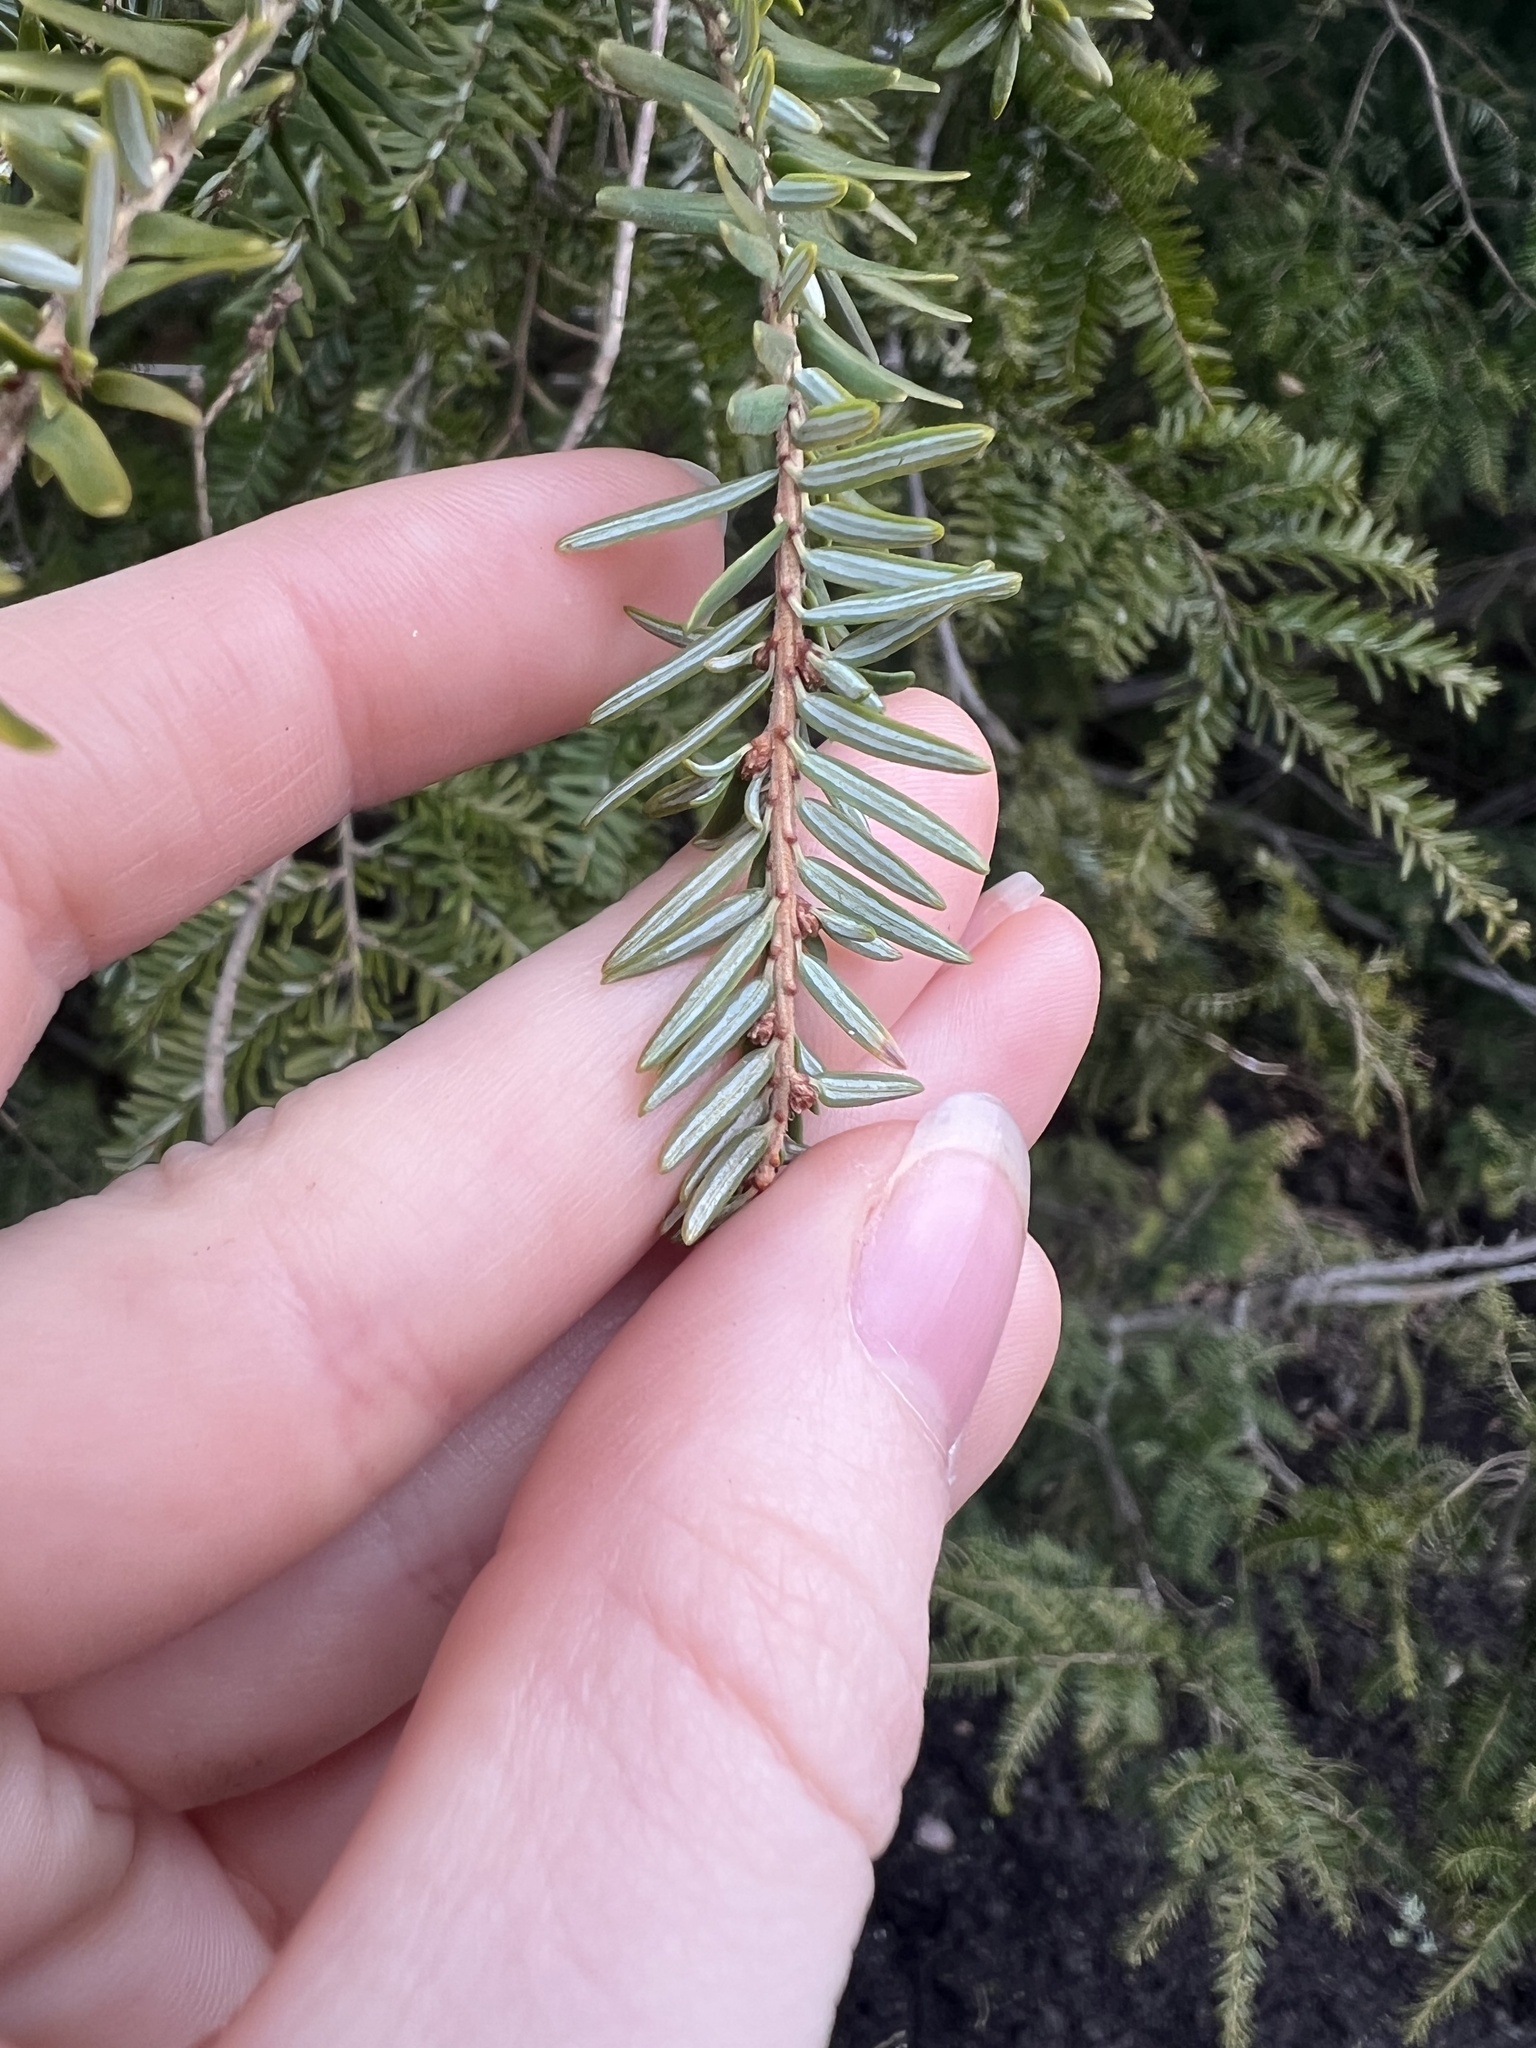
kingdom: Plantae
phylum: Tracheophyta
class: Pinopsida
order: Pinales
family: Pinaceae
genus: Tsuga
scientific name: Tsuga canadensis
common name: Eastern hemlock
